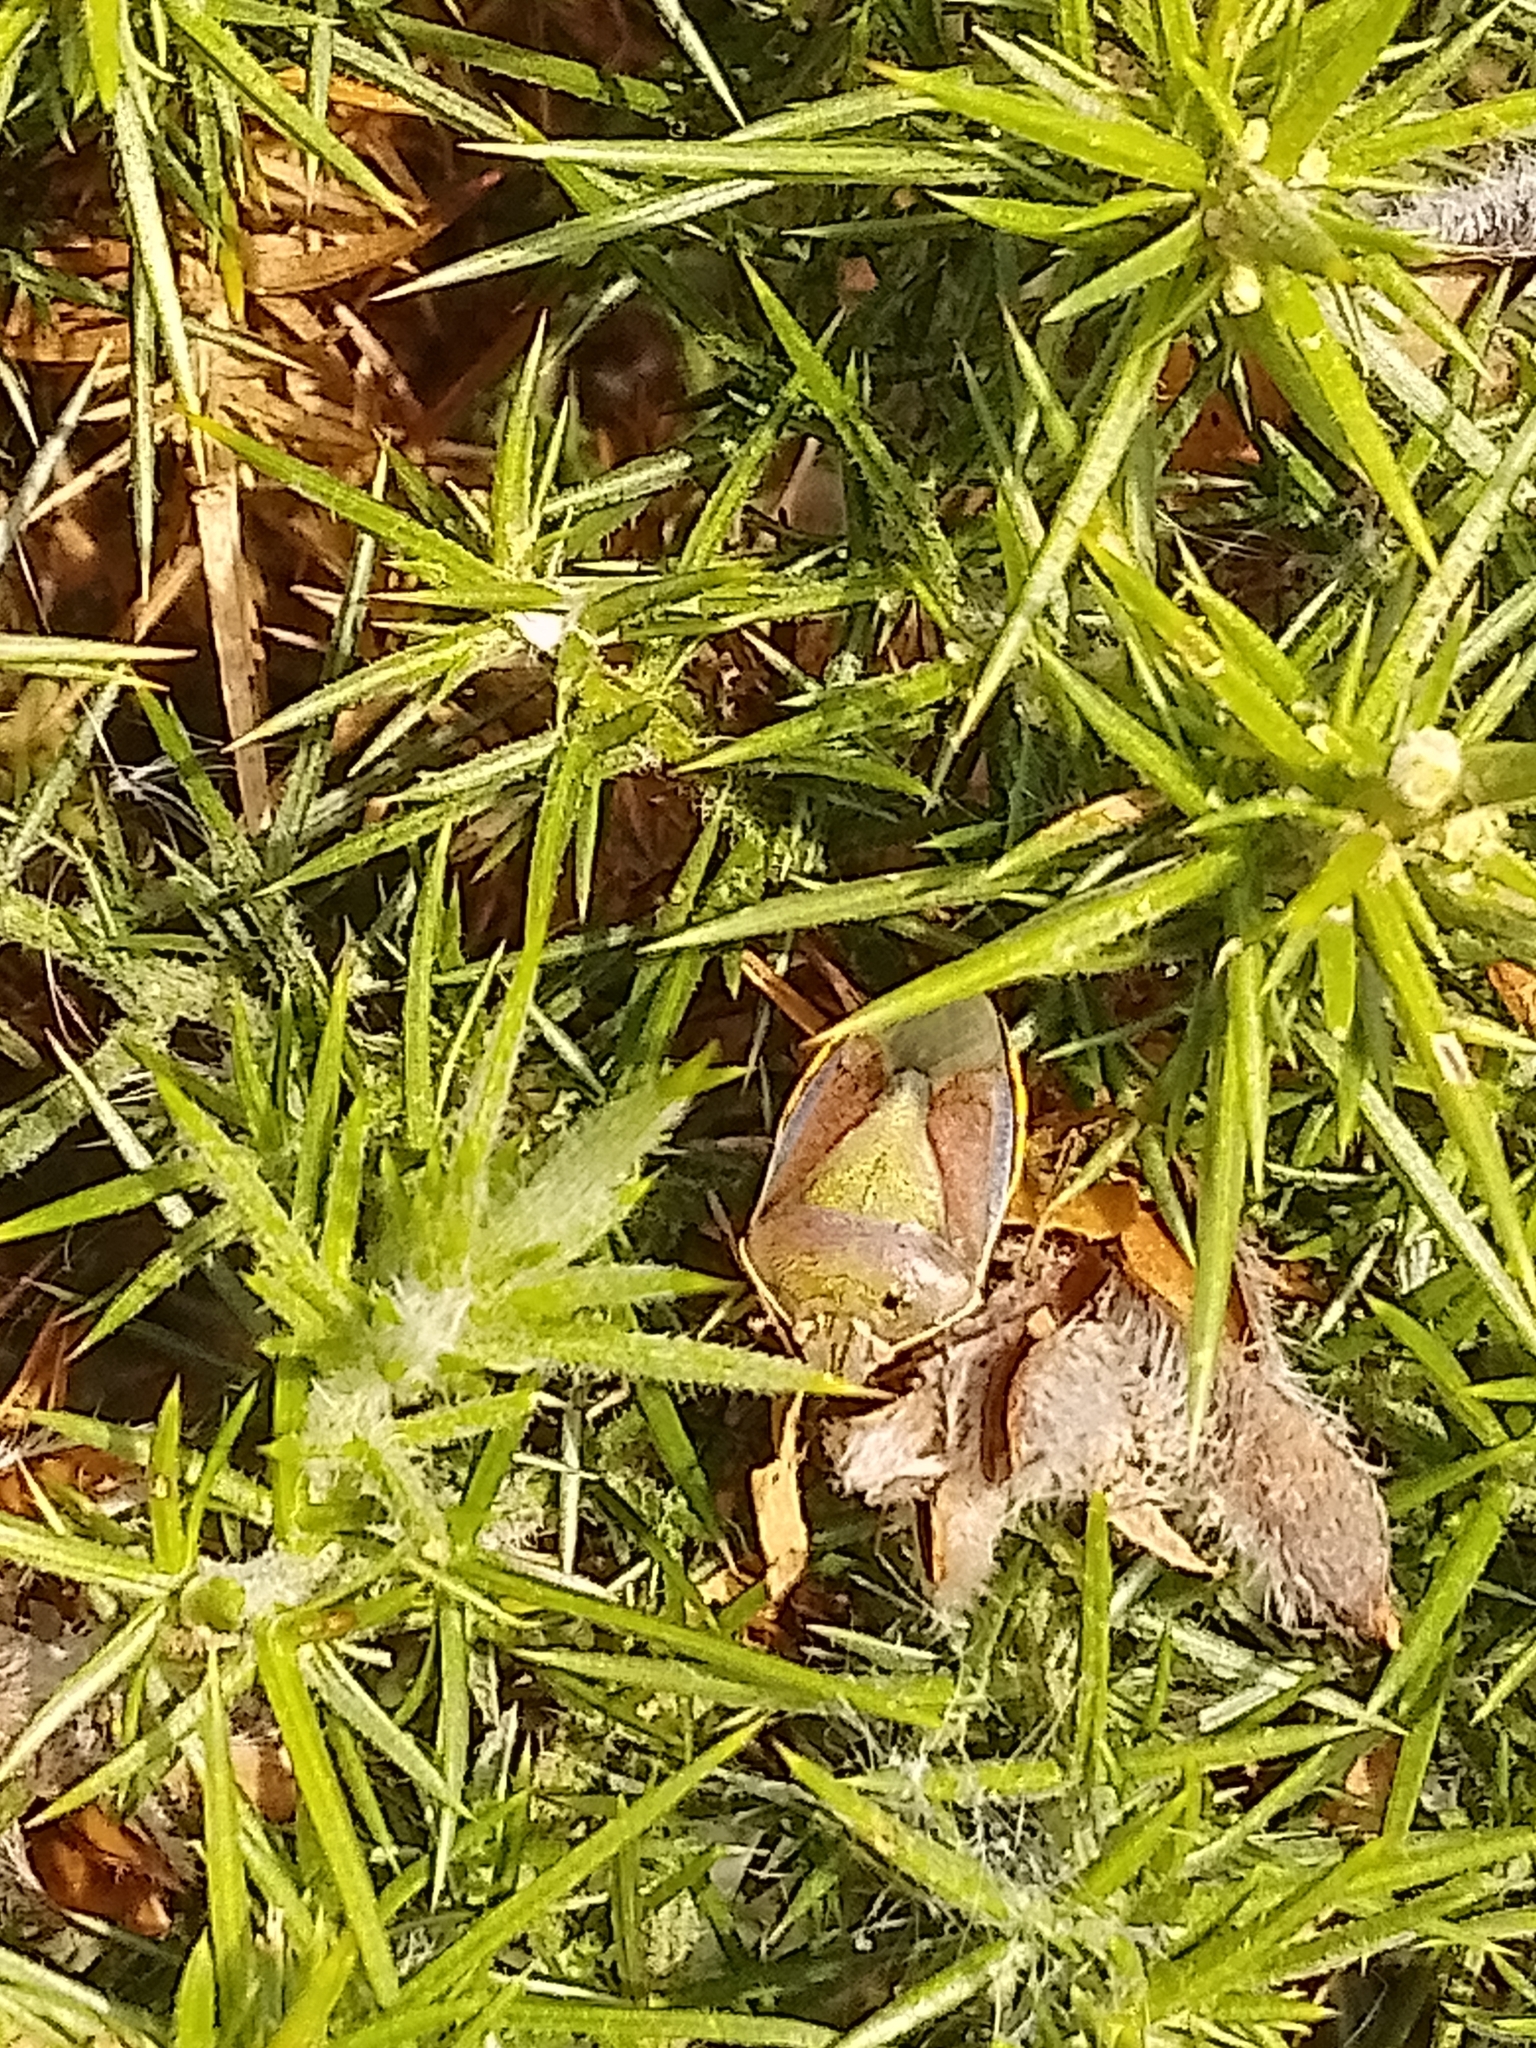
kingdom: Animalia
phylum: Arthropoda
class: Insecta
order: Hemiptera
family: Pentatomidae
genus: Piezodorus
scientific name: Piezodorus lituratus
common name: Stink bug
